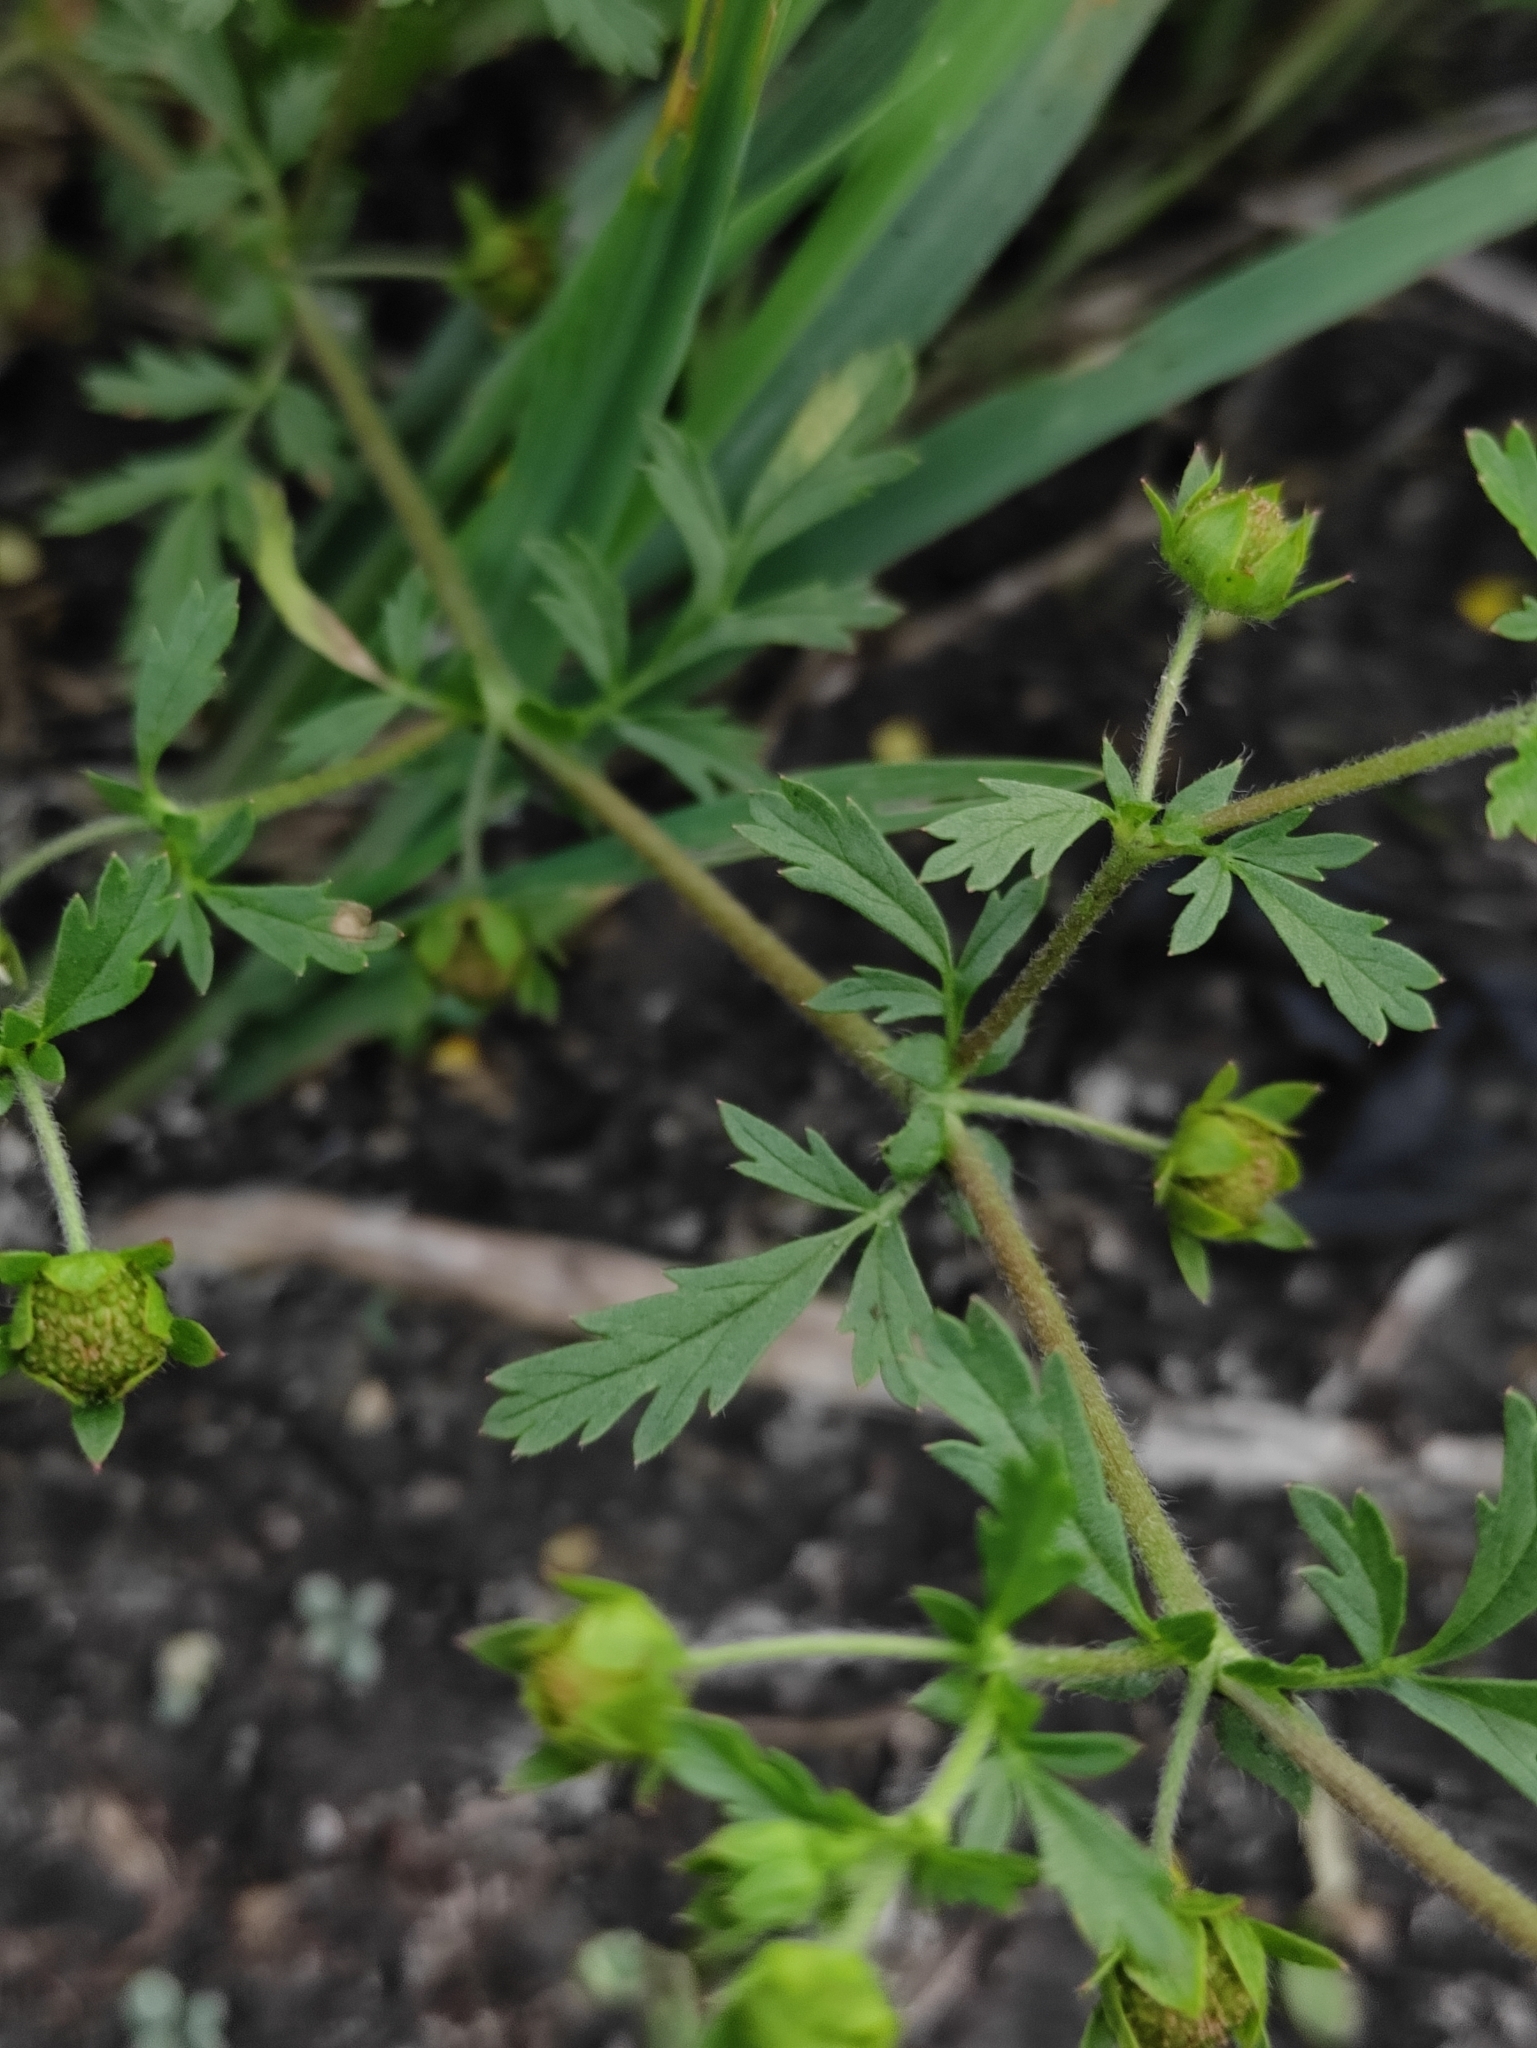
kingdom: Plantae
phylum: Tracheophyta
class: Magnoliopsida
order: Rosales
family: Rosaceae
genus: Potentilla
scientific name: Potentilla supina
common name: Prostrate cinquefoil
